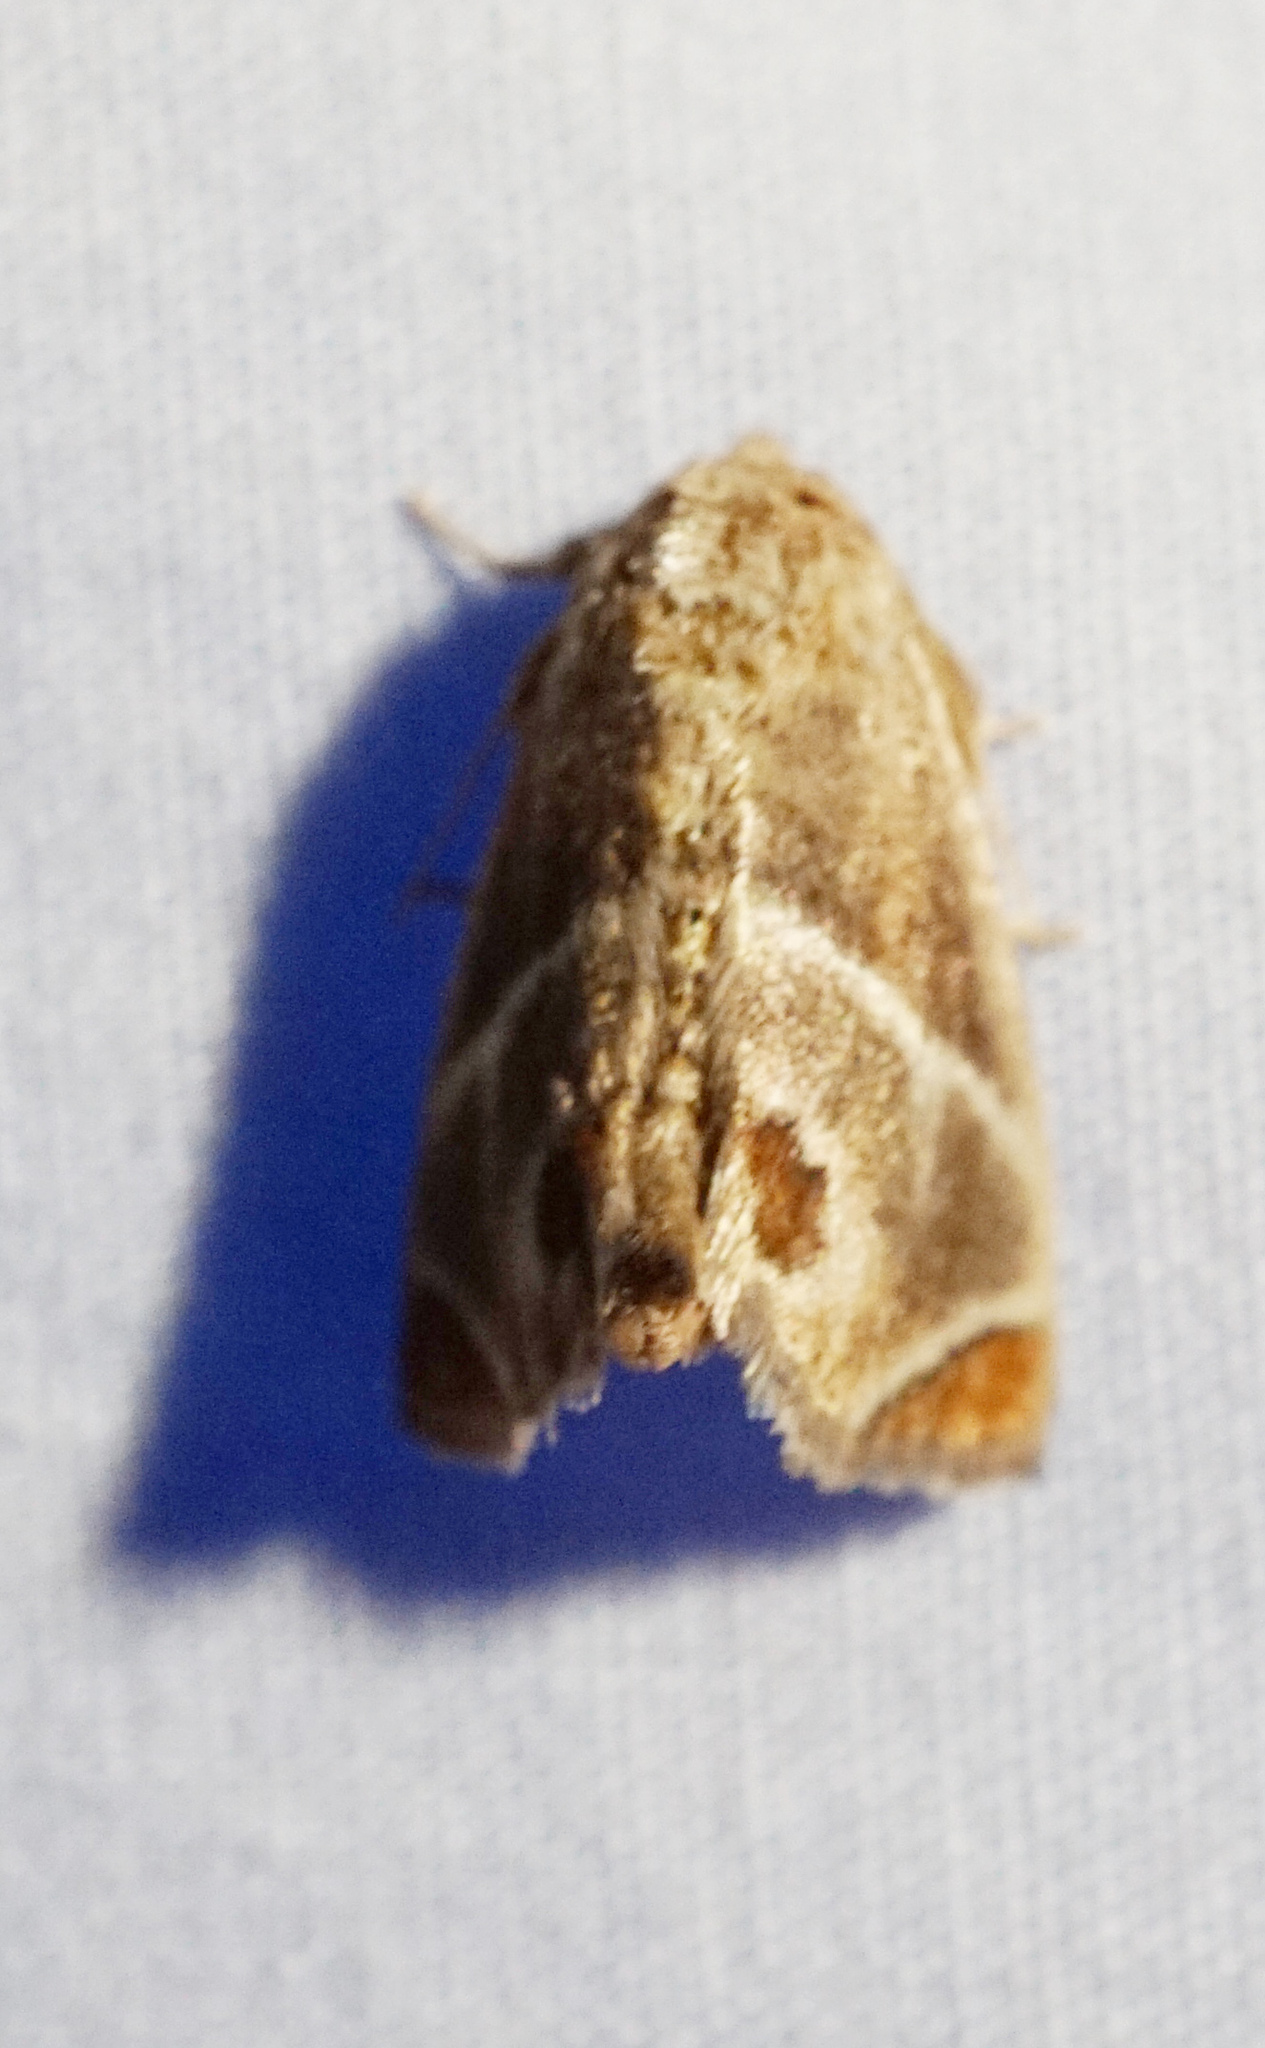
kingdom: Animalia
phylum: Arthropoda
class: Insecta
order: Lepidoptera
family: Limacodidae
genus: Apoda
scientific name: Apoda biguttata
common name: Shagreened slug moth
